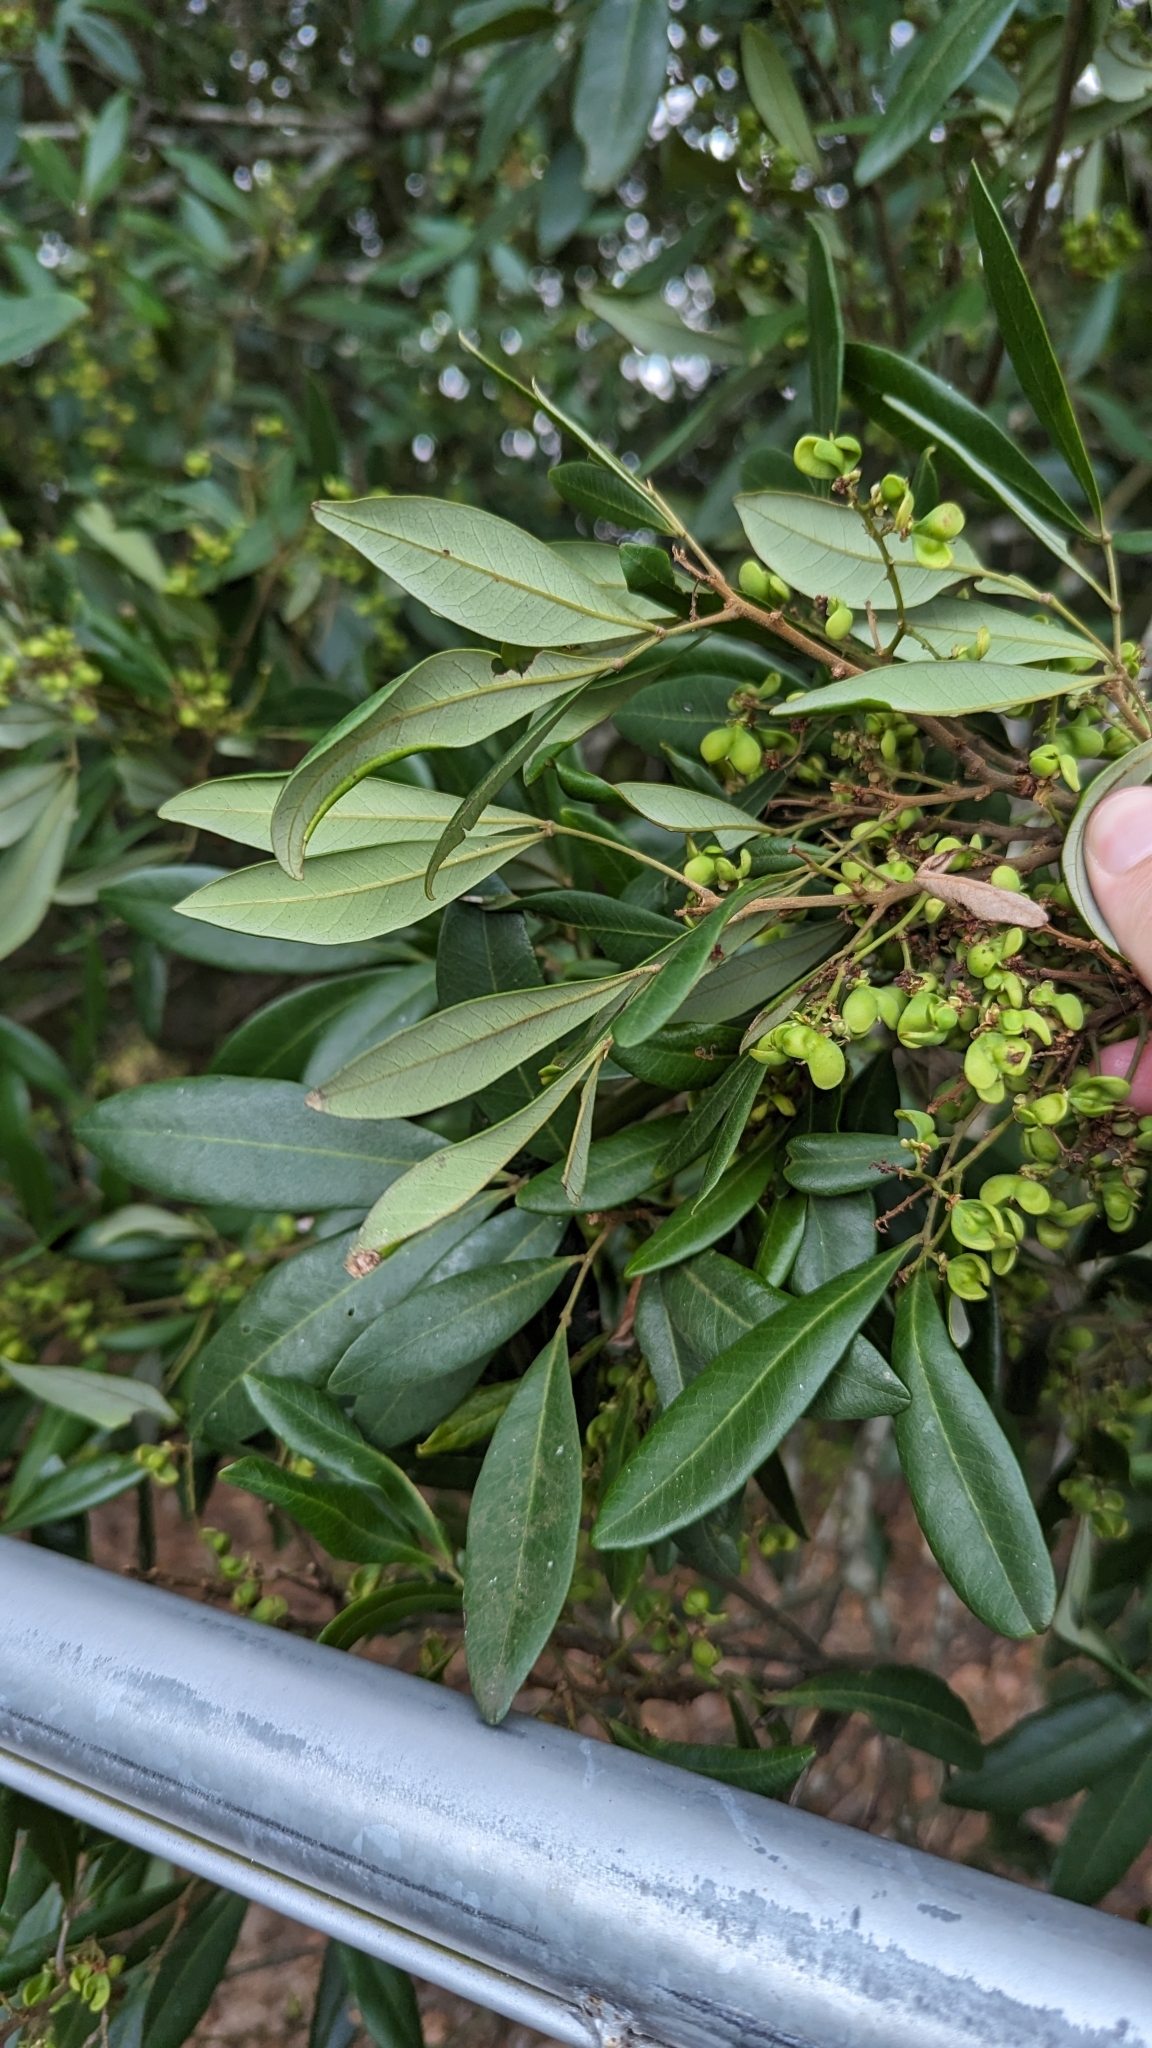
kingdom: Plantae
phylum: Tracheophyta
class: Magnoliopsida
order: Sapindales
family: Sapindaceae
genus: Guioa
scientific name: Guioa semiglauca
